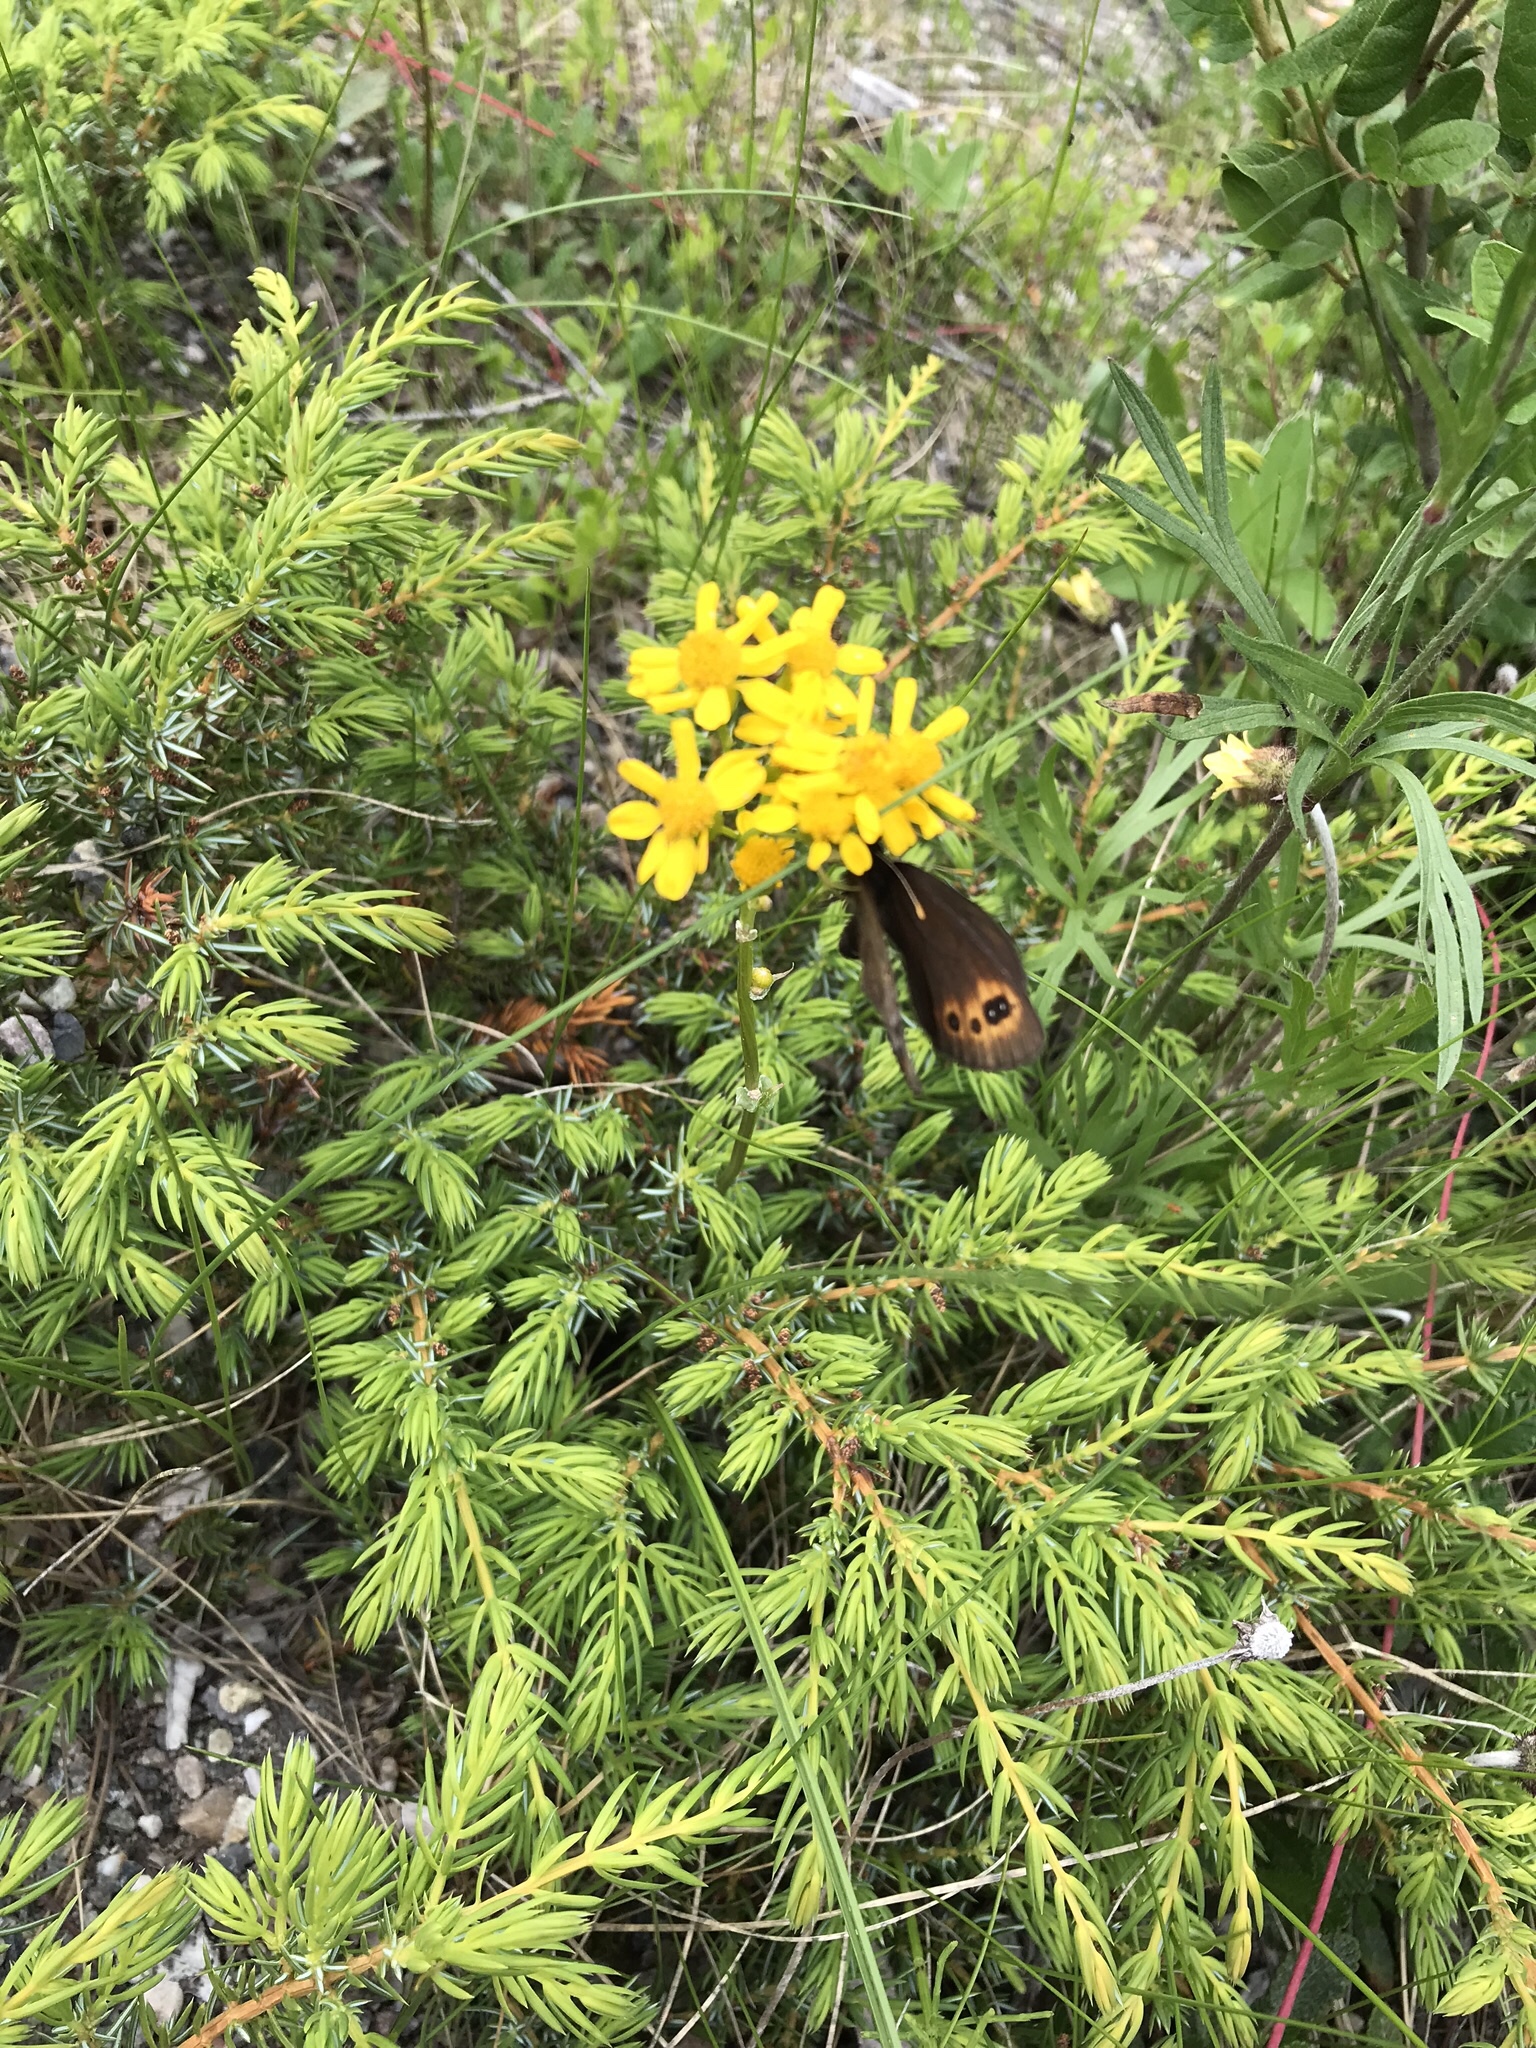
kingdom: Animalia
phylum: Arthropoda
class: Insecta
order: Lepidoptera
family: Nymphalidae
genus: Erebia
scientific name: Erebia epipsodea
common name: Common alpine
